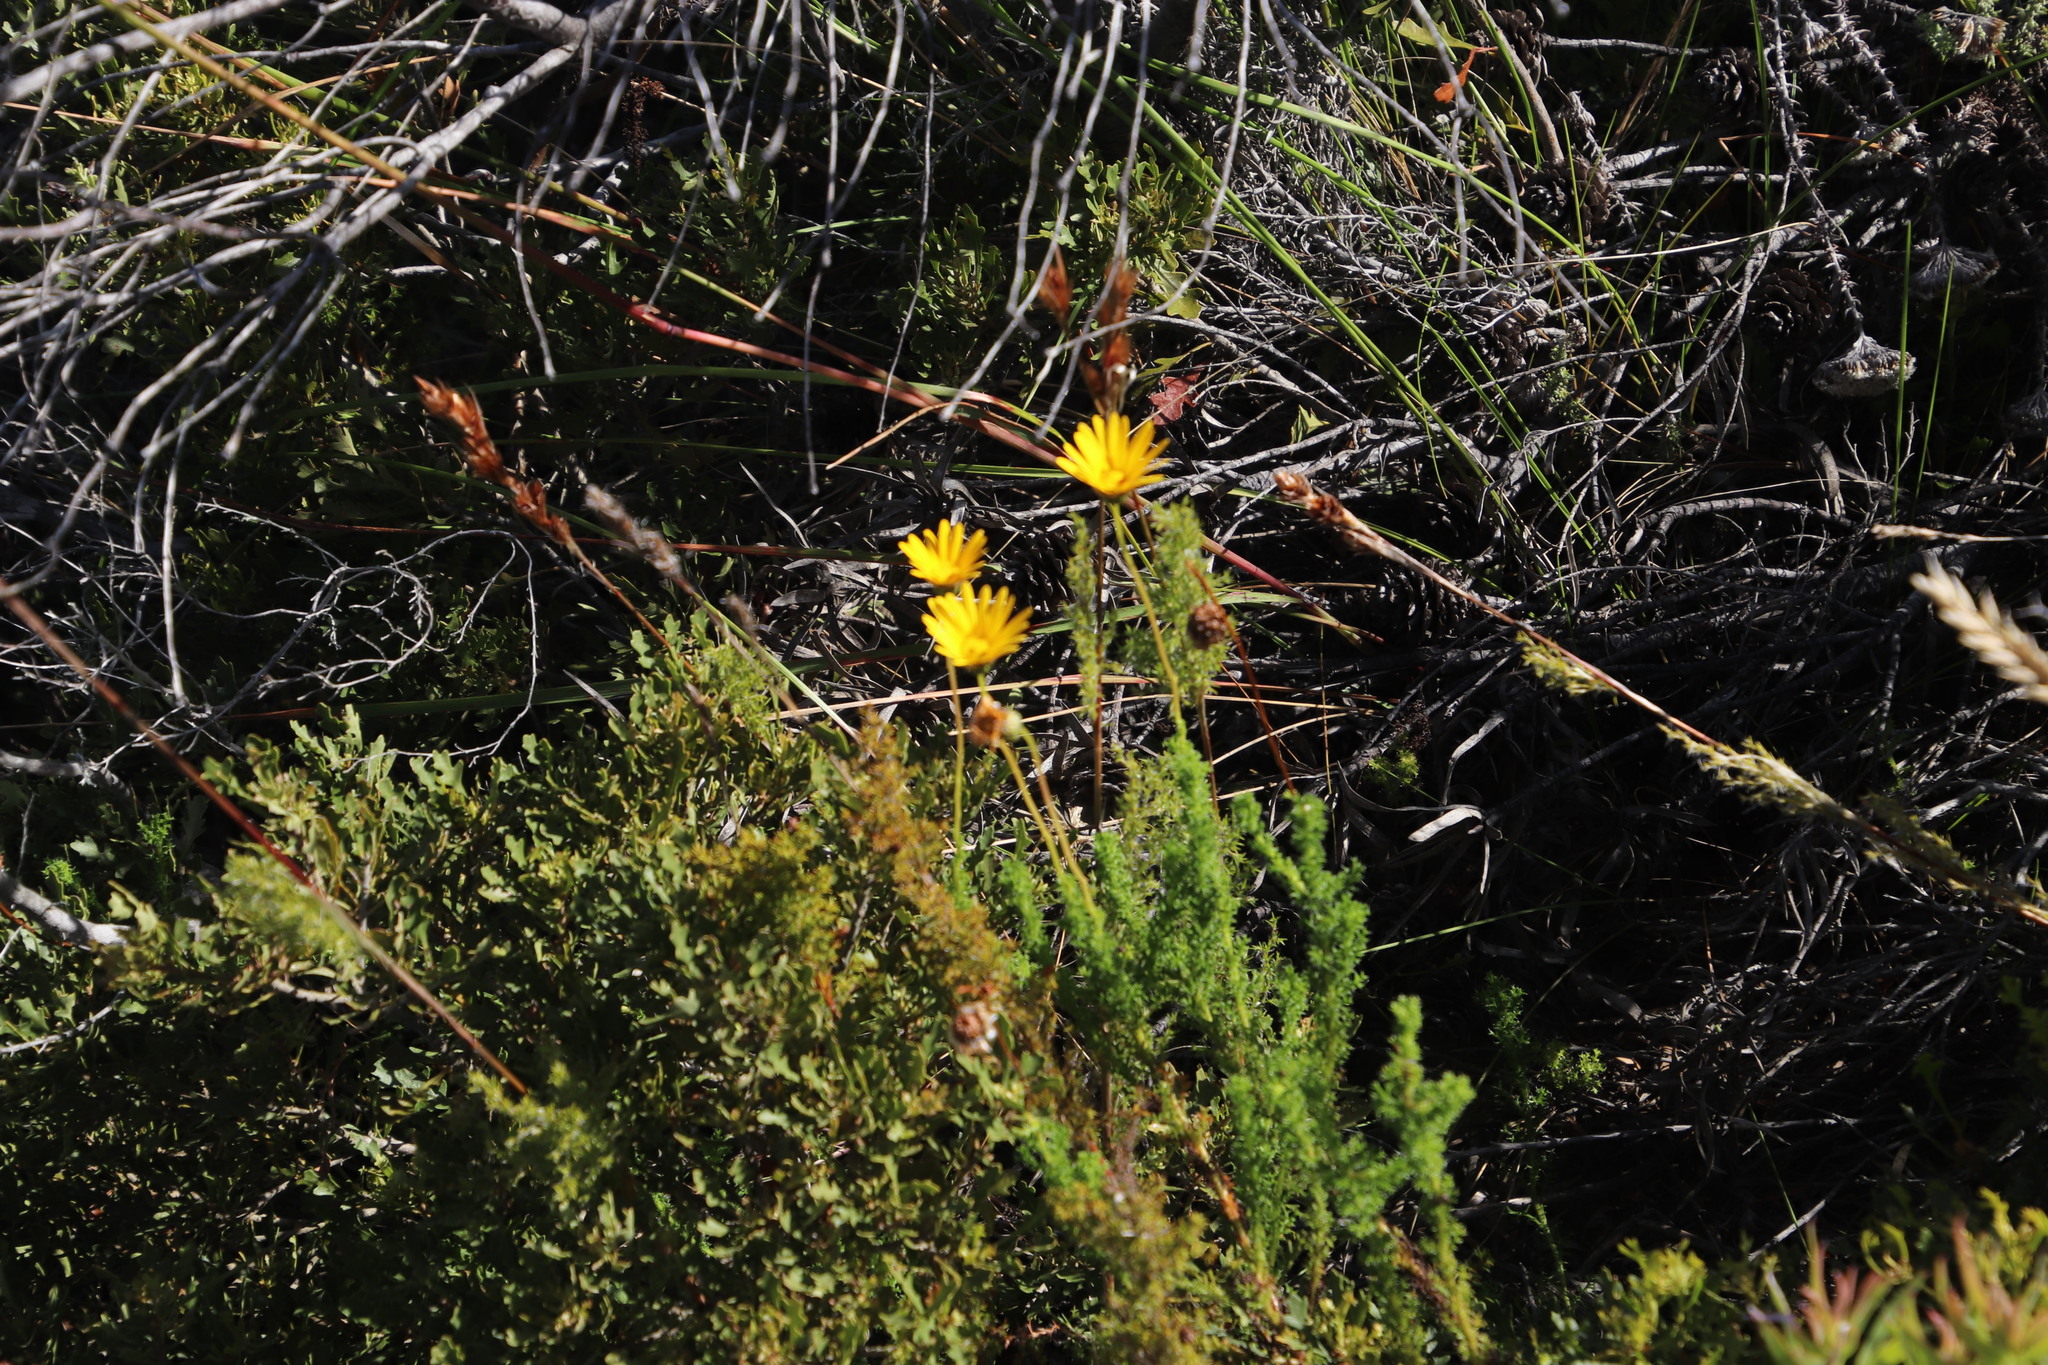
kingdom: Plantae
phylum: Tracheophyta
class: Magnoliopsida
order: Asterales
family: Asteraceae
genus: Ursinia
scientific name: Ursinia dentata
